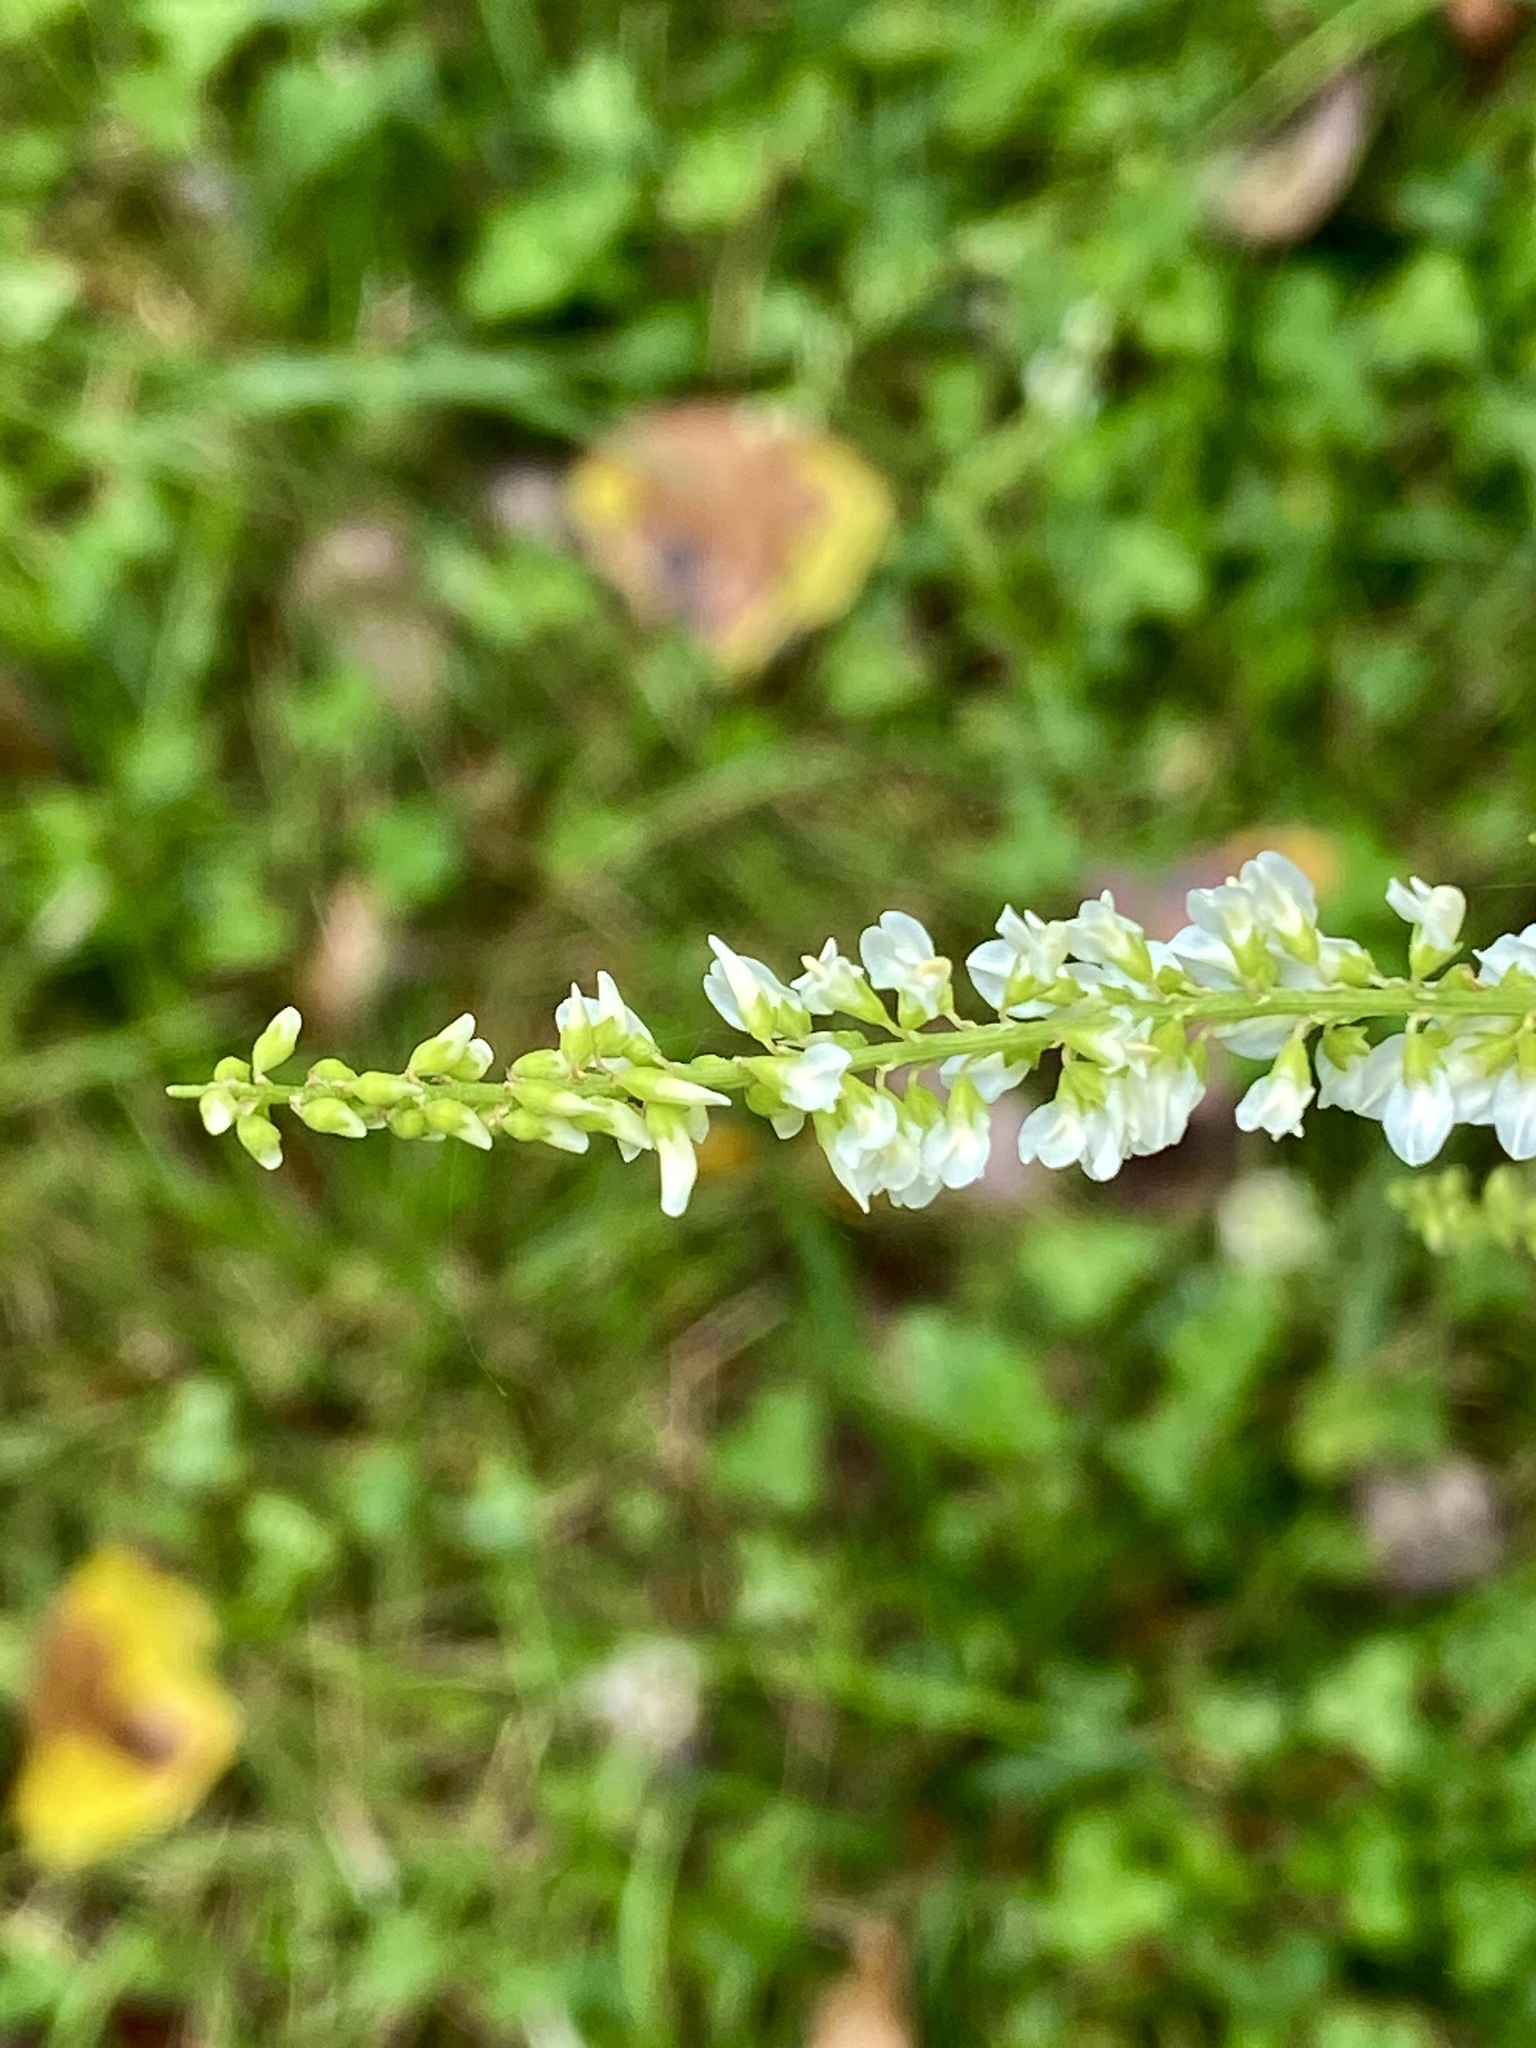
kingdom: Plantae
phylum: Tracheophyta
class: Magnoliopsida
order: Fabales
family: Fabaceae
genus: Melilotus
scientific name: Melilotus albus
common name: White melilot
